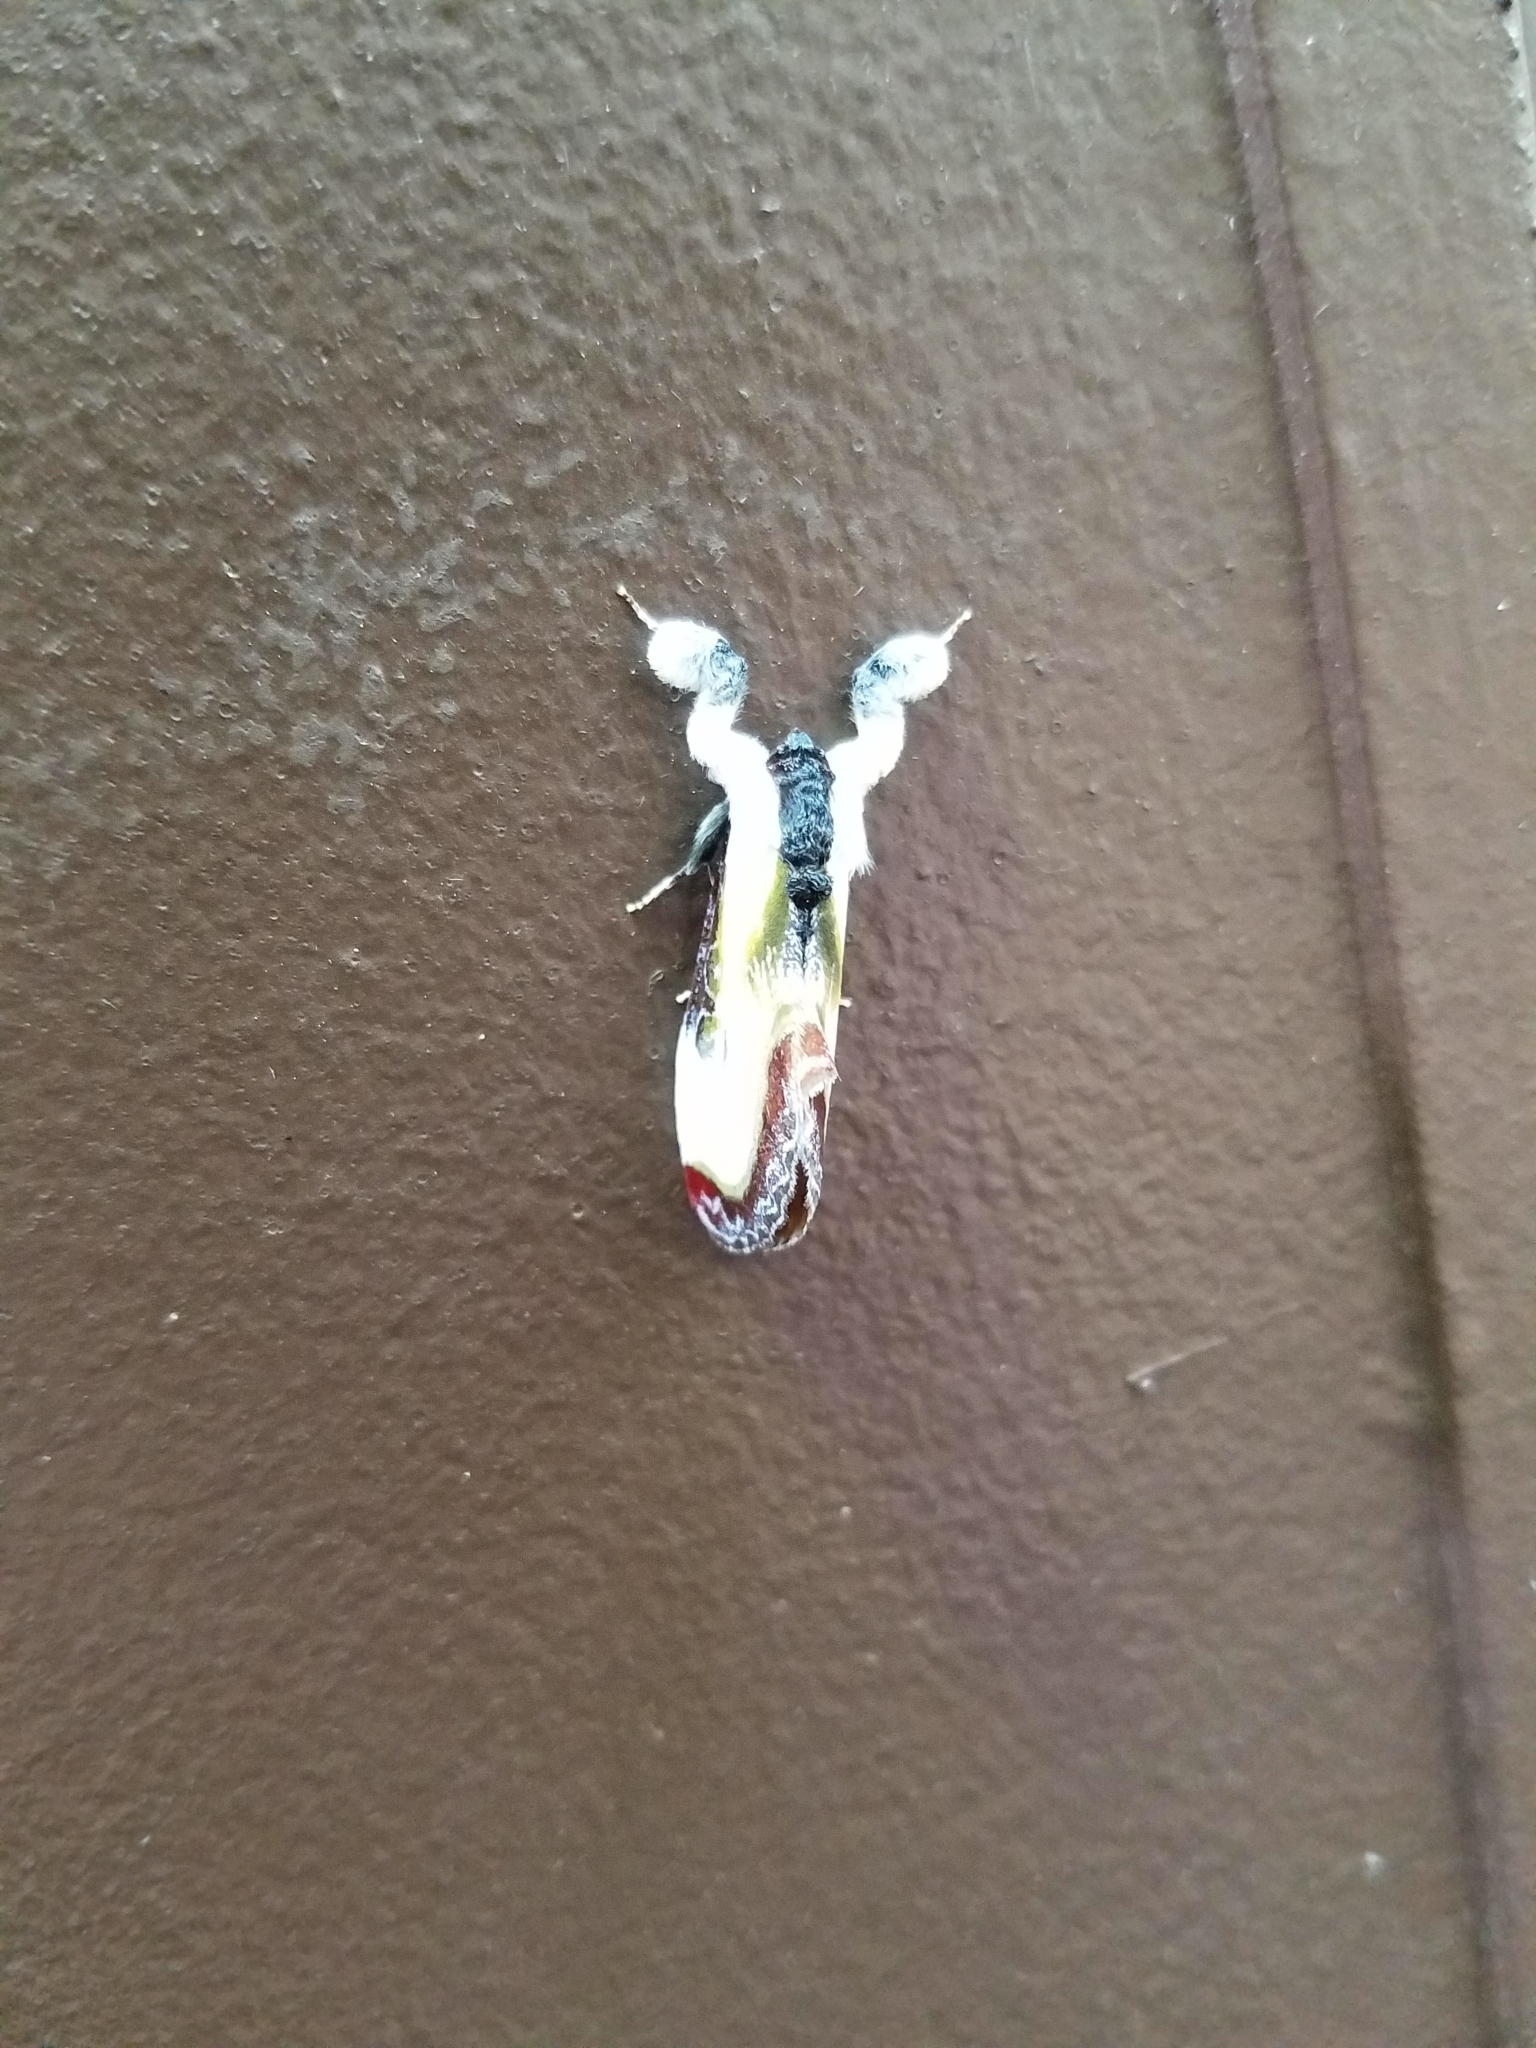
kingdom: Animalia
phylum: Arthropoda
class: Insecta
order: Lepidoptera
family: Noctuidae
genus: Eudryas
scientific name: Eudryas grata
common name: Beautiful wood-nymph
